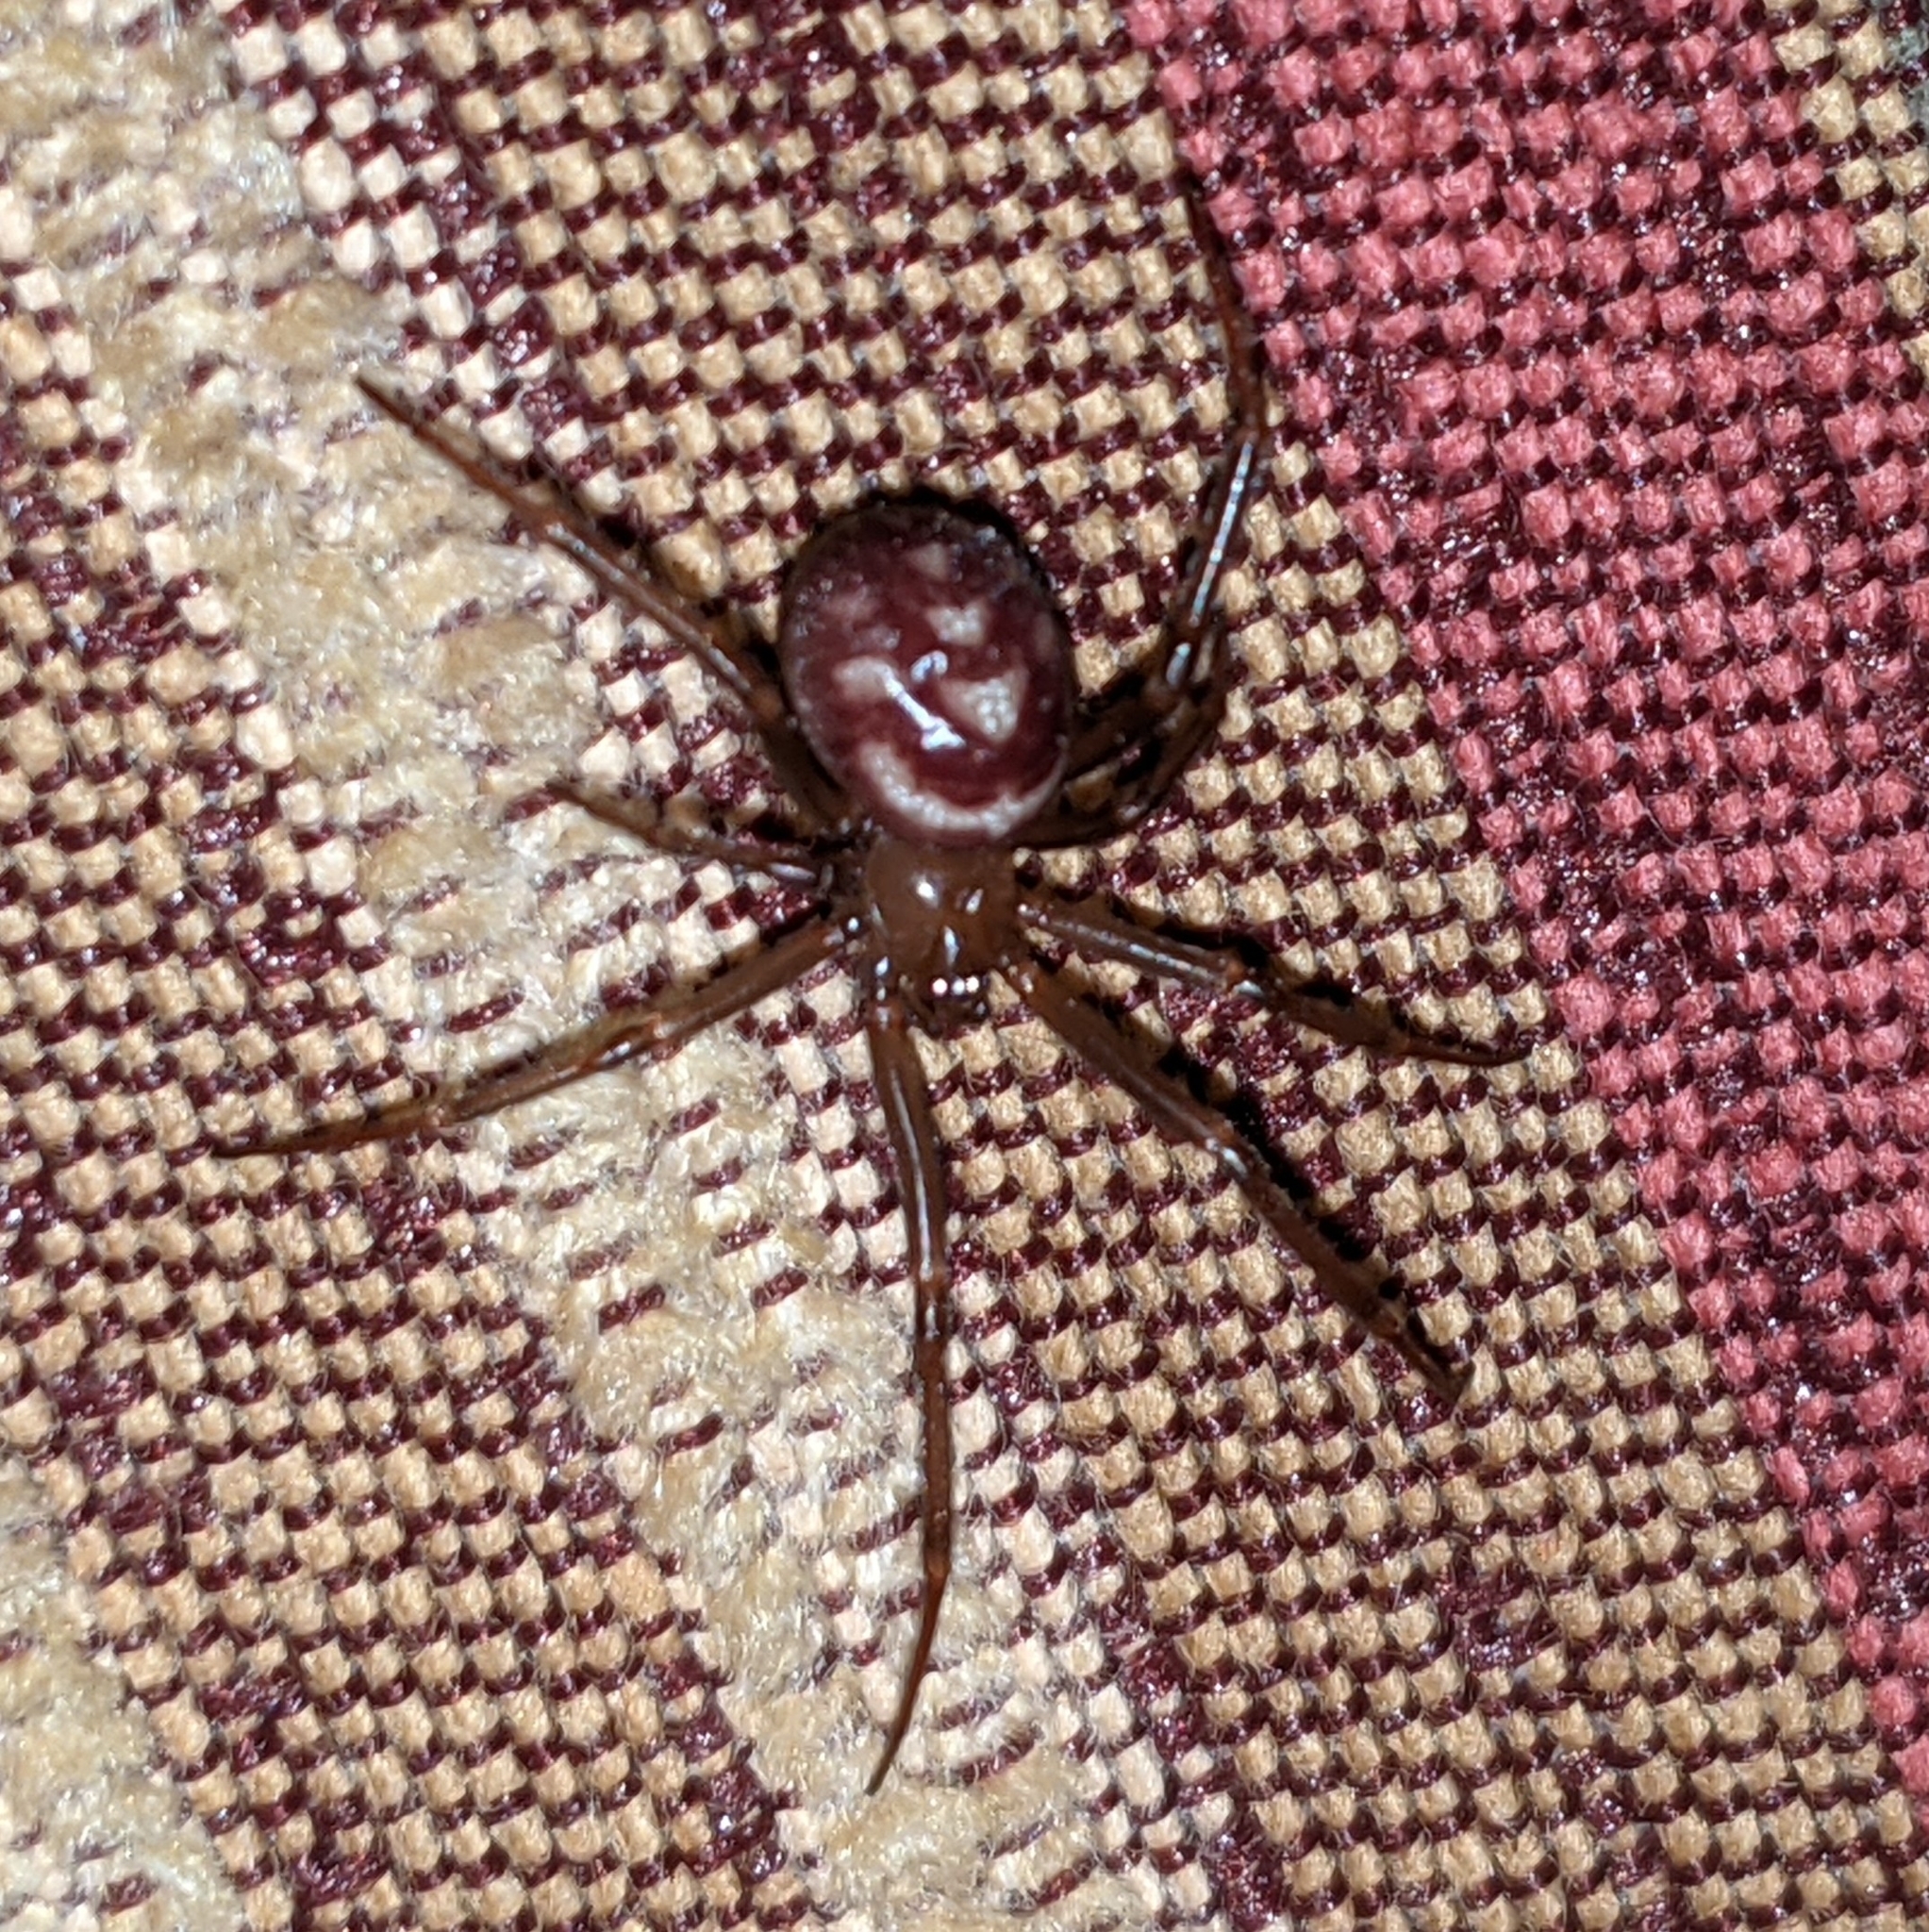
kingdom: Animalia
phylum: Arthropoda
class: Arachnida
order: Araneae
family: Theridiidae
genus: Steatoda
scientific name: Steatoda grossa
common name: False black widow
